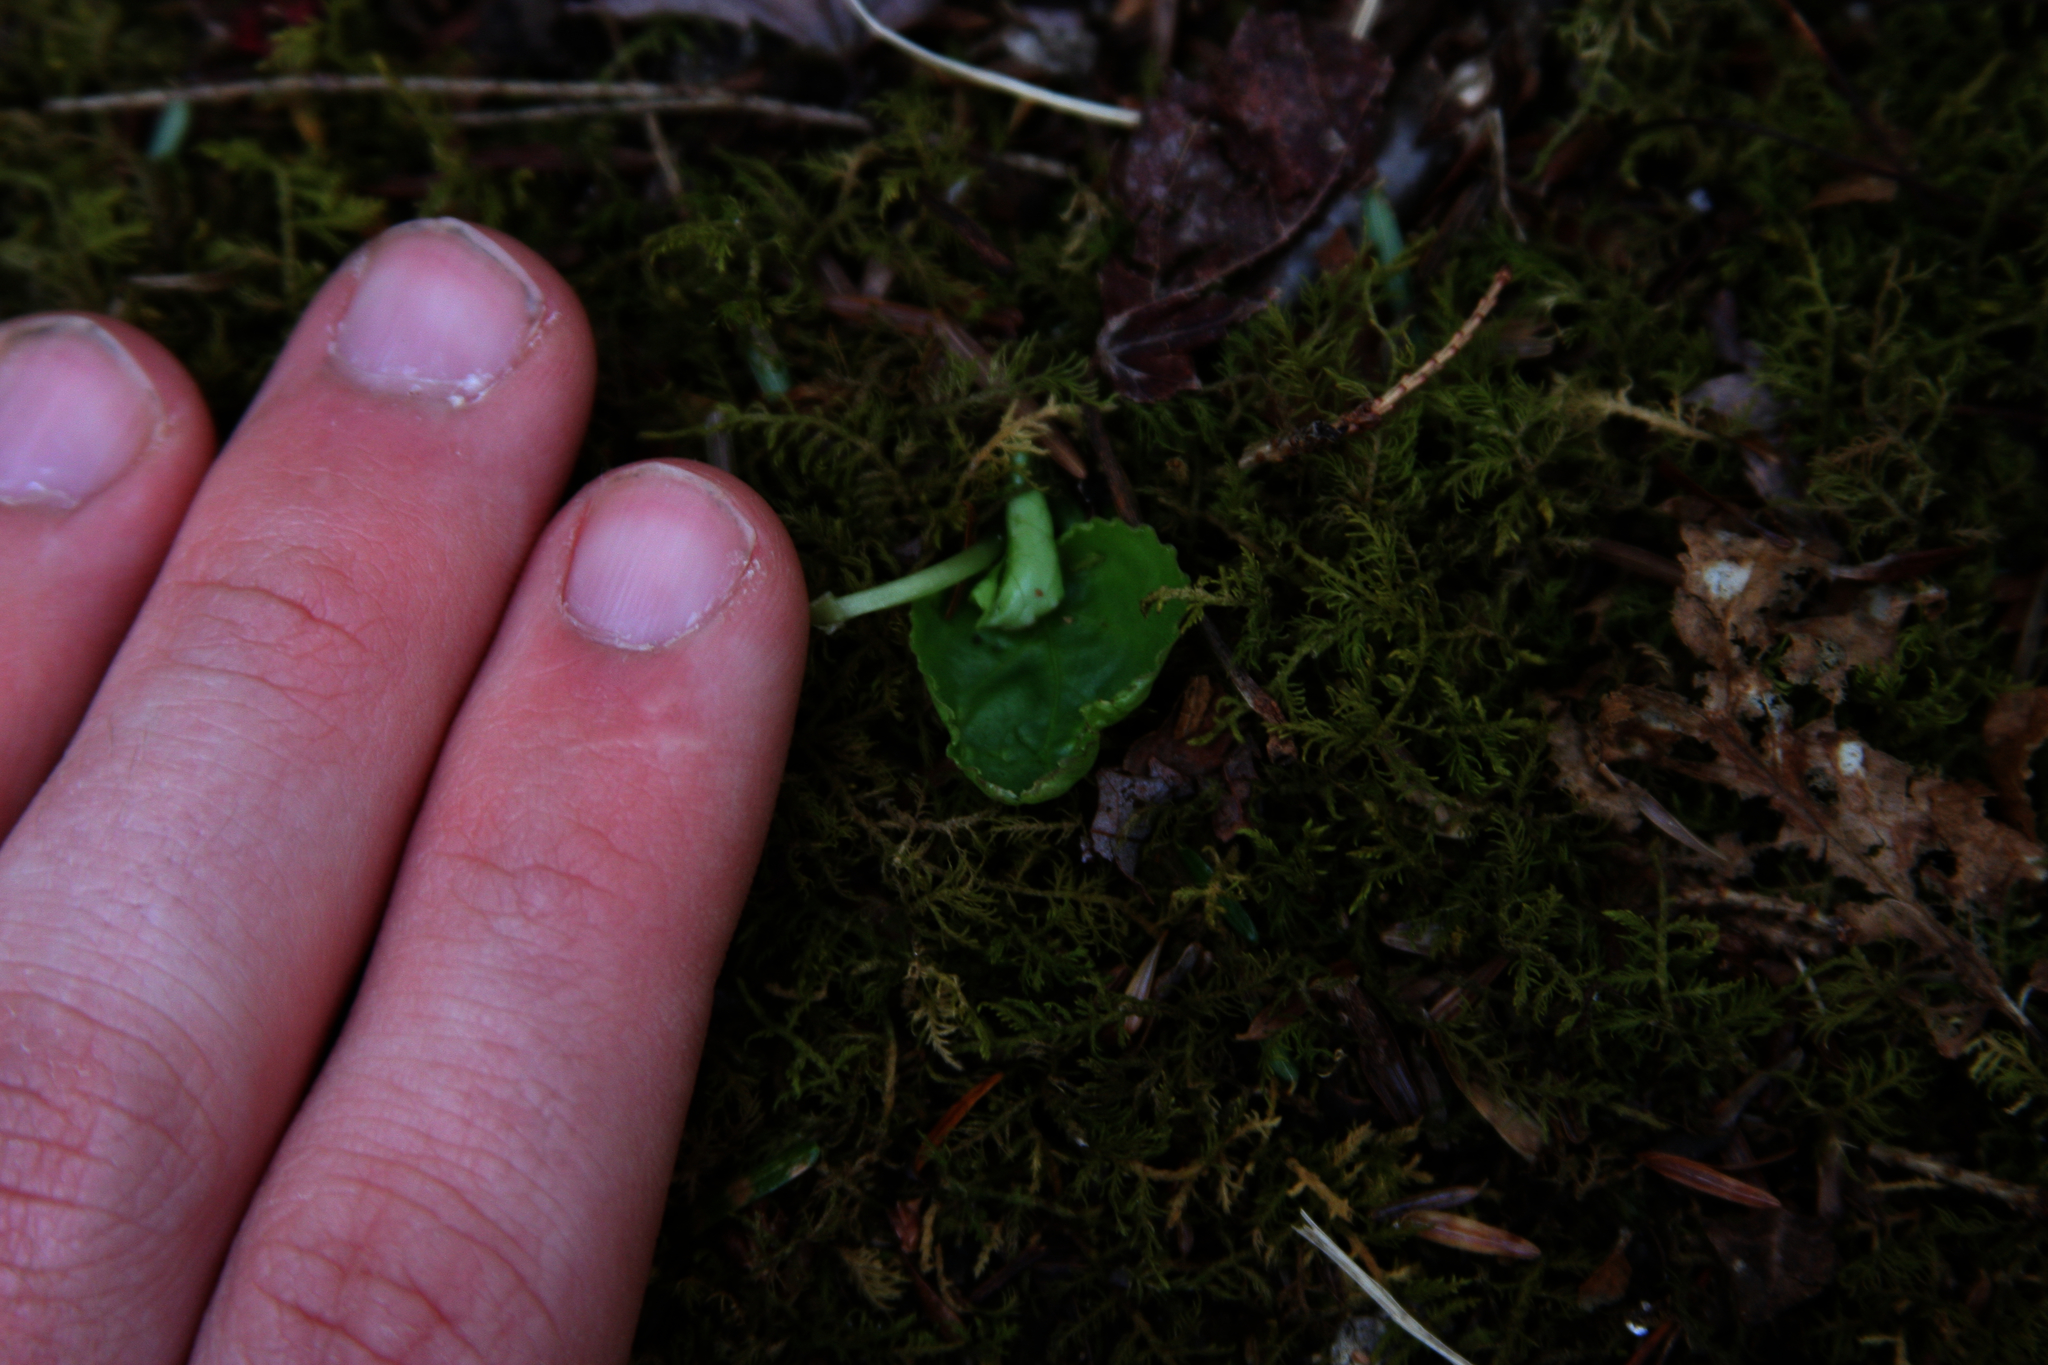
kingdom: Plantae
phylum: Tracheophyta
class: Magnoliopsida
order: Malpighiales
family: Violaceae
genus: Viola
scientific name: Viola rotundifolia
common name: Early yellow violet
